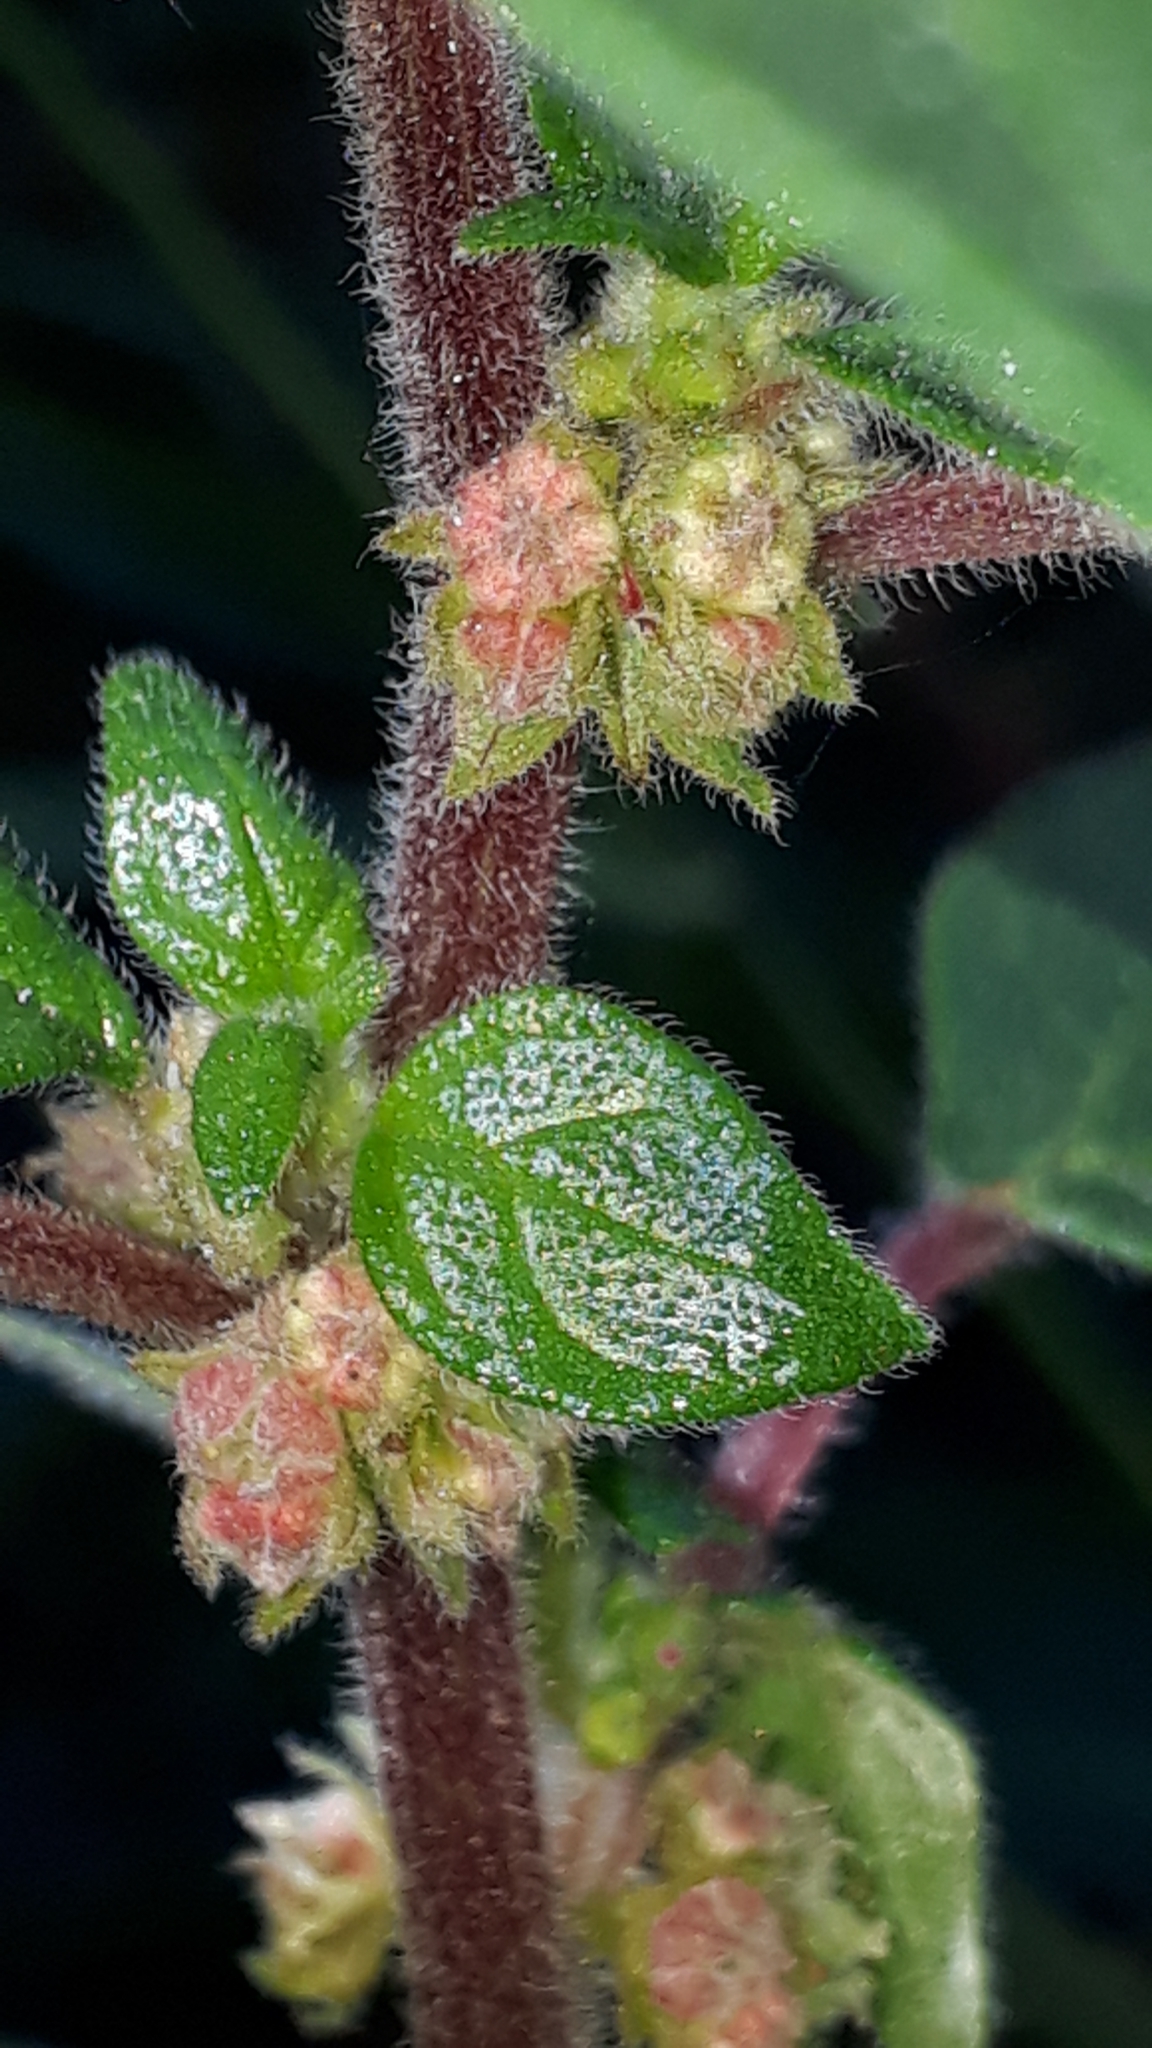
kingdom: Plantae
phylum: Tracheophyta
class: Magnoliopsida
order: Rosales
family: Urticaceae
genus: Parietaria
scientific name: Parietaria judaica
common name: Pellitory-of-the-wall
